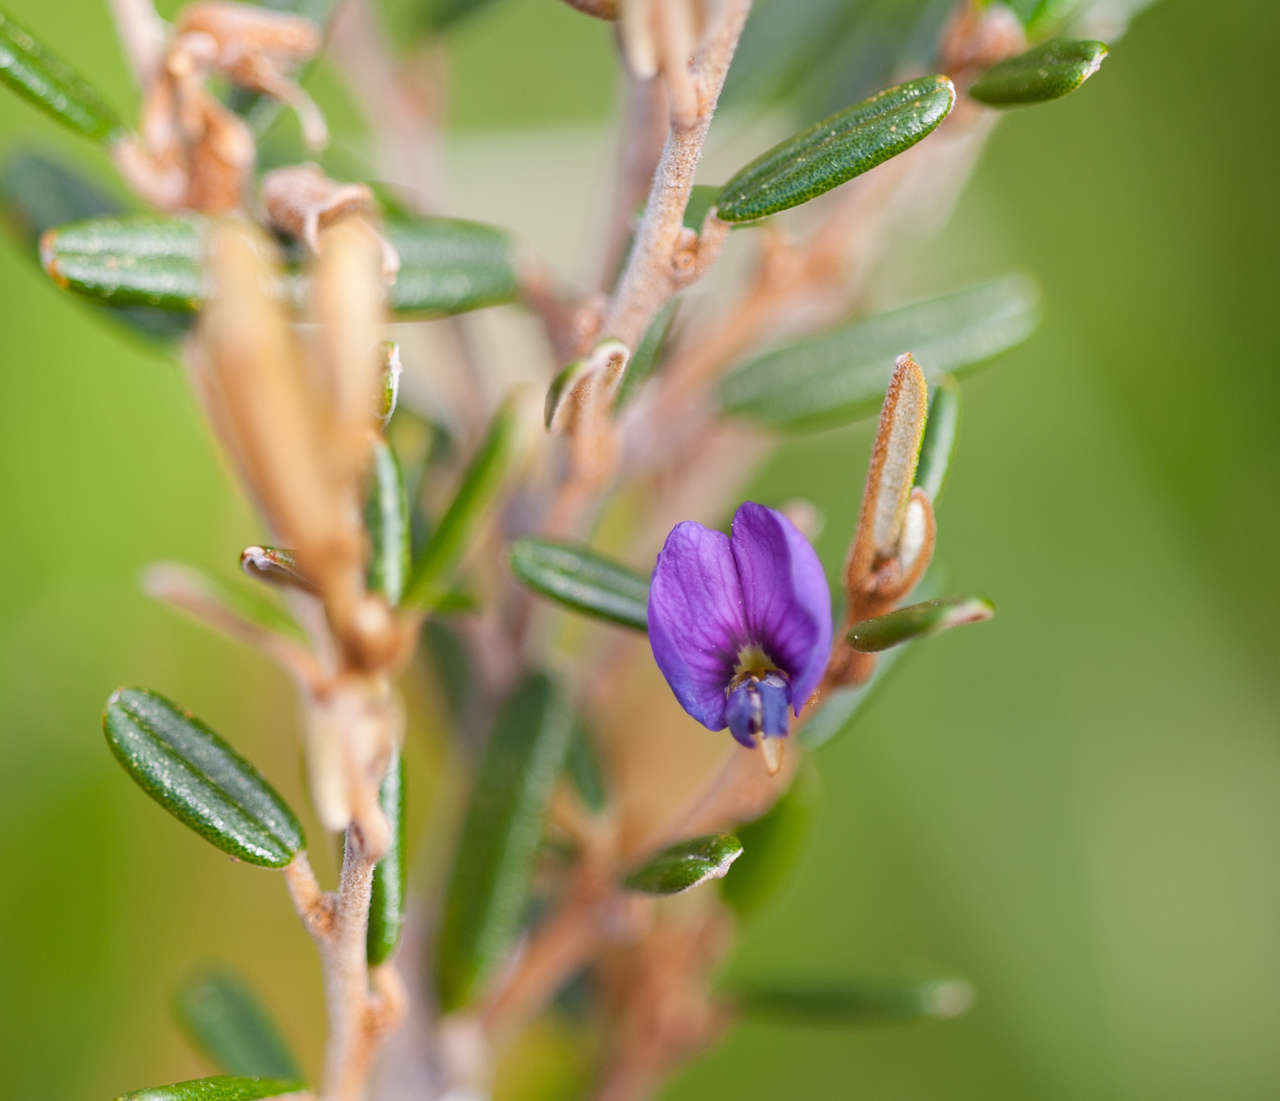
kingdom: Plantae
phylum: Tracheophyta
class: Magnoliopsida
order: Fabales
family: Fabaceae
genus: Hovea
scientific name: Hovea montana
